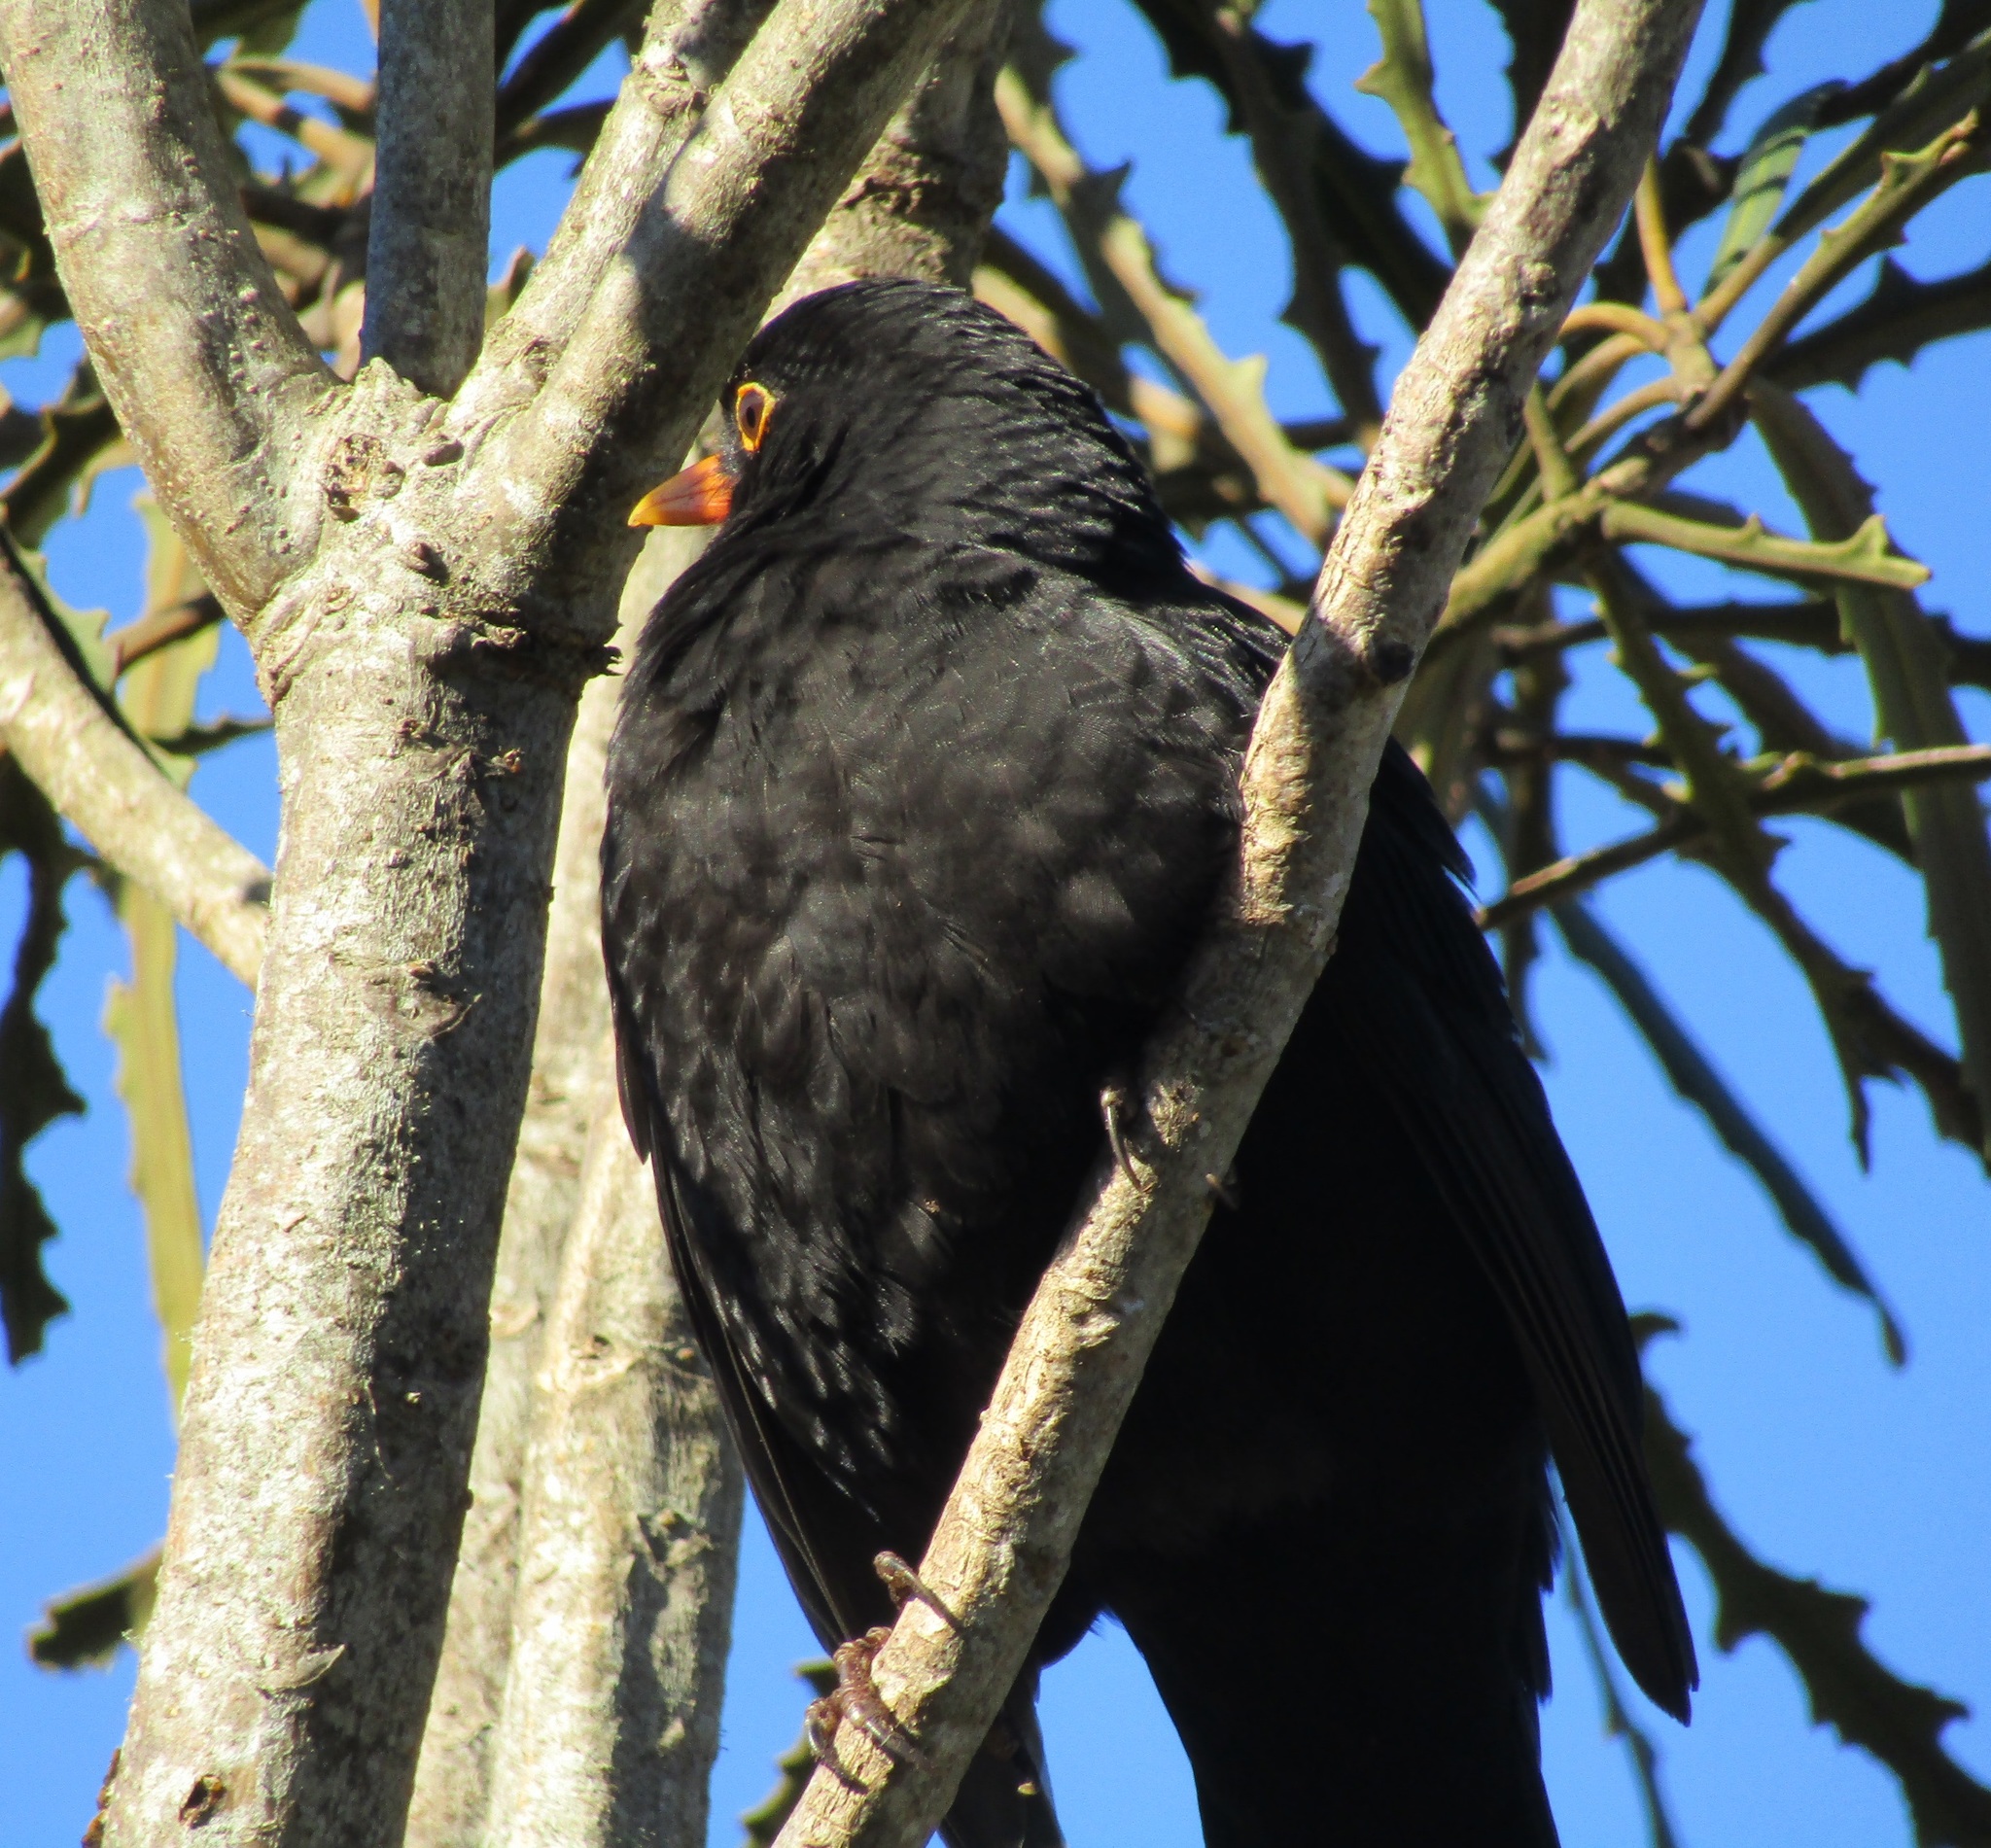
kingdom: Animalia
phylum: Chordata
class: Aves
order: Passeriformes
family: Turdidae
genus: Turdus
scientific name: Turdus merula
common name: Common blackbird
